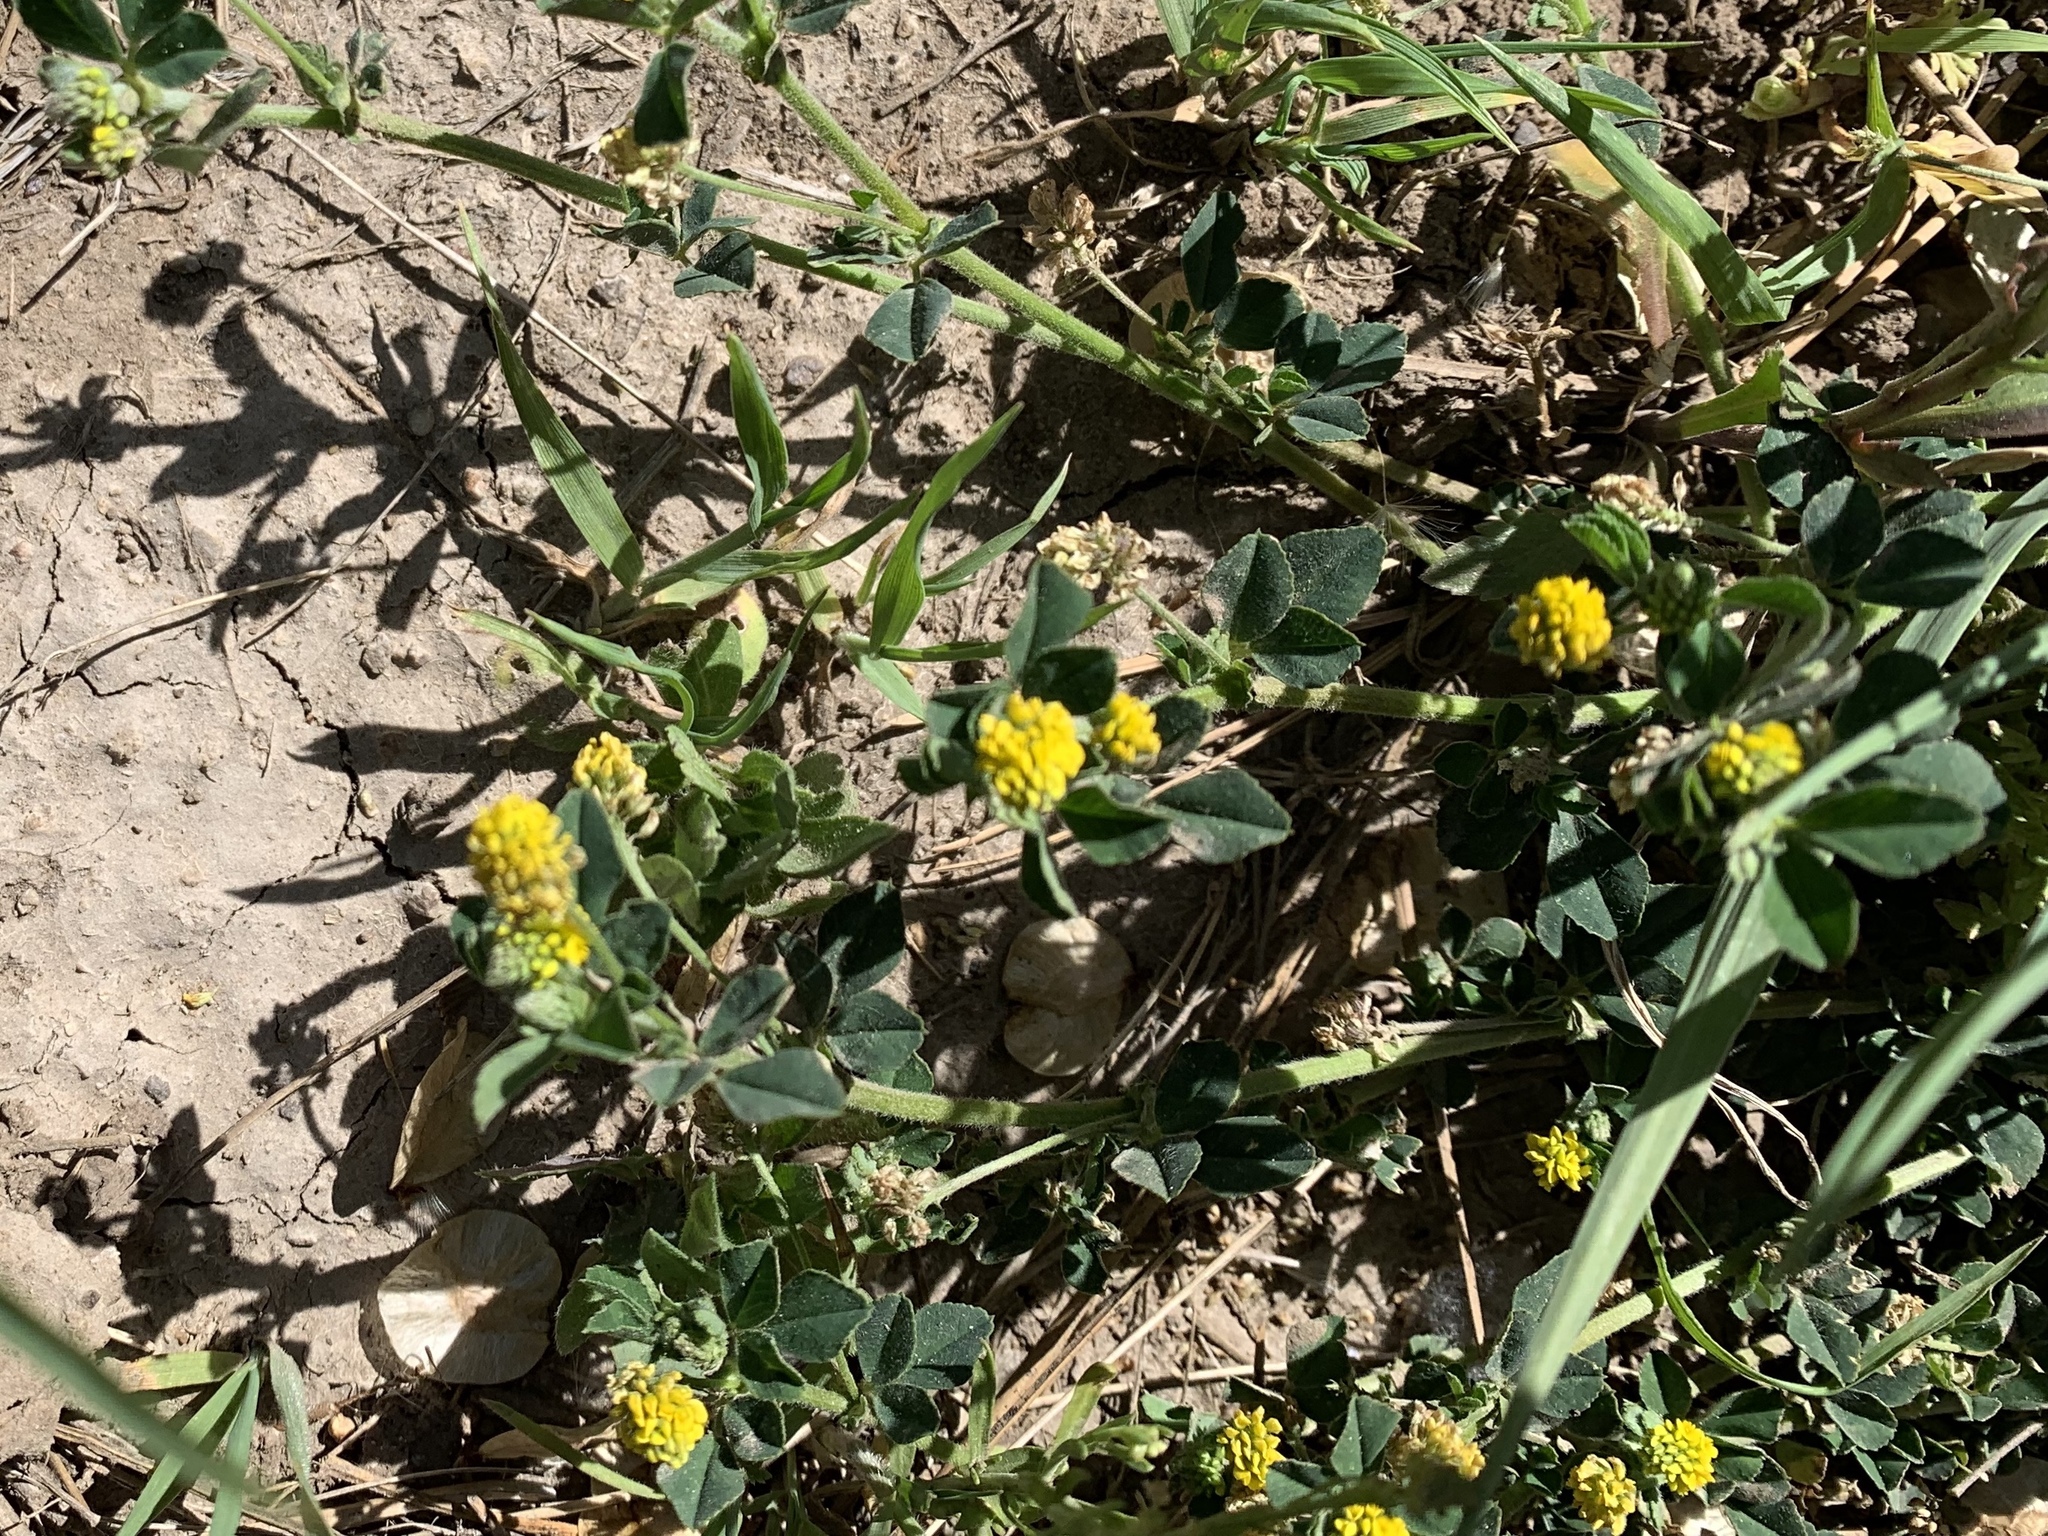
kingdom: Plantae
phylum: Tracheophyta
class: Magnoliopsida
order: Fabales
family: Fabaceae
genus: Medicago
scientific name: Medicago lupulina
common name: Black medick
